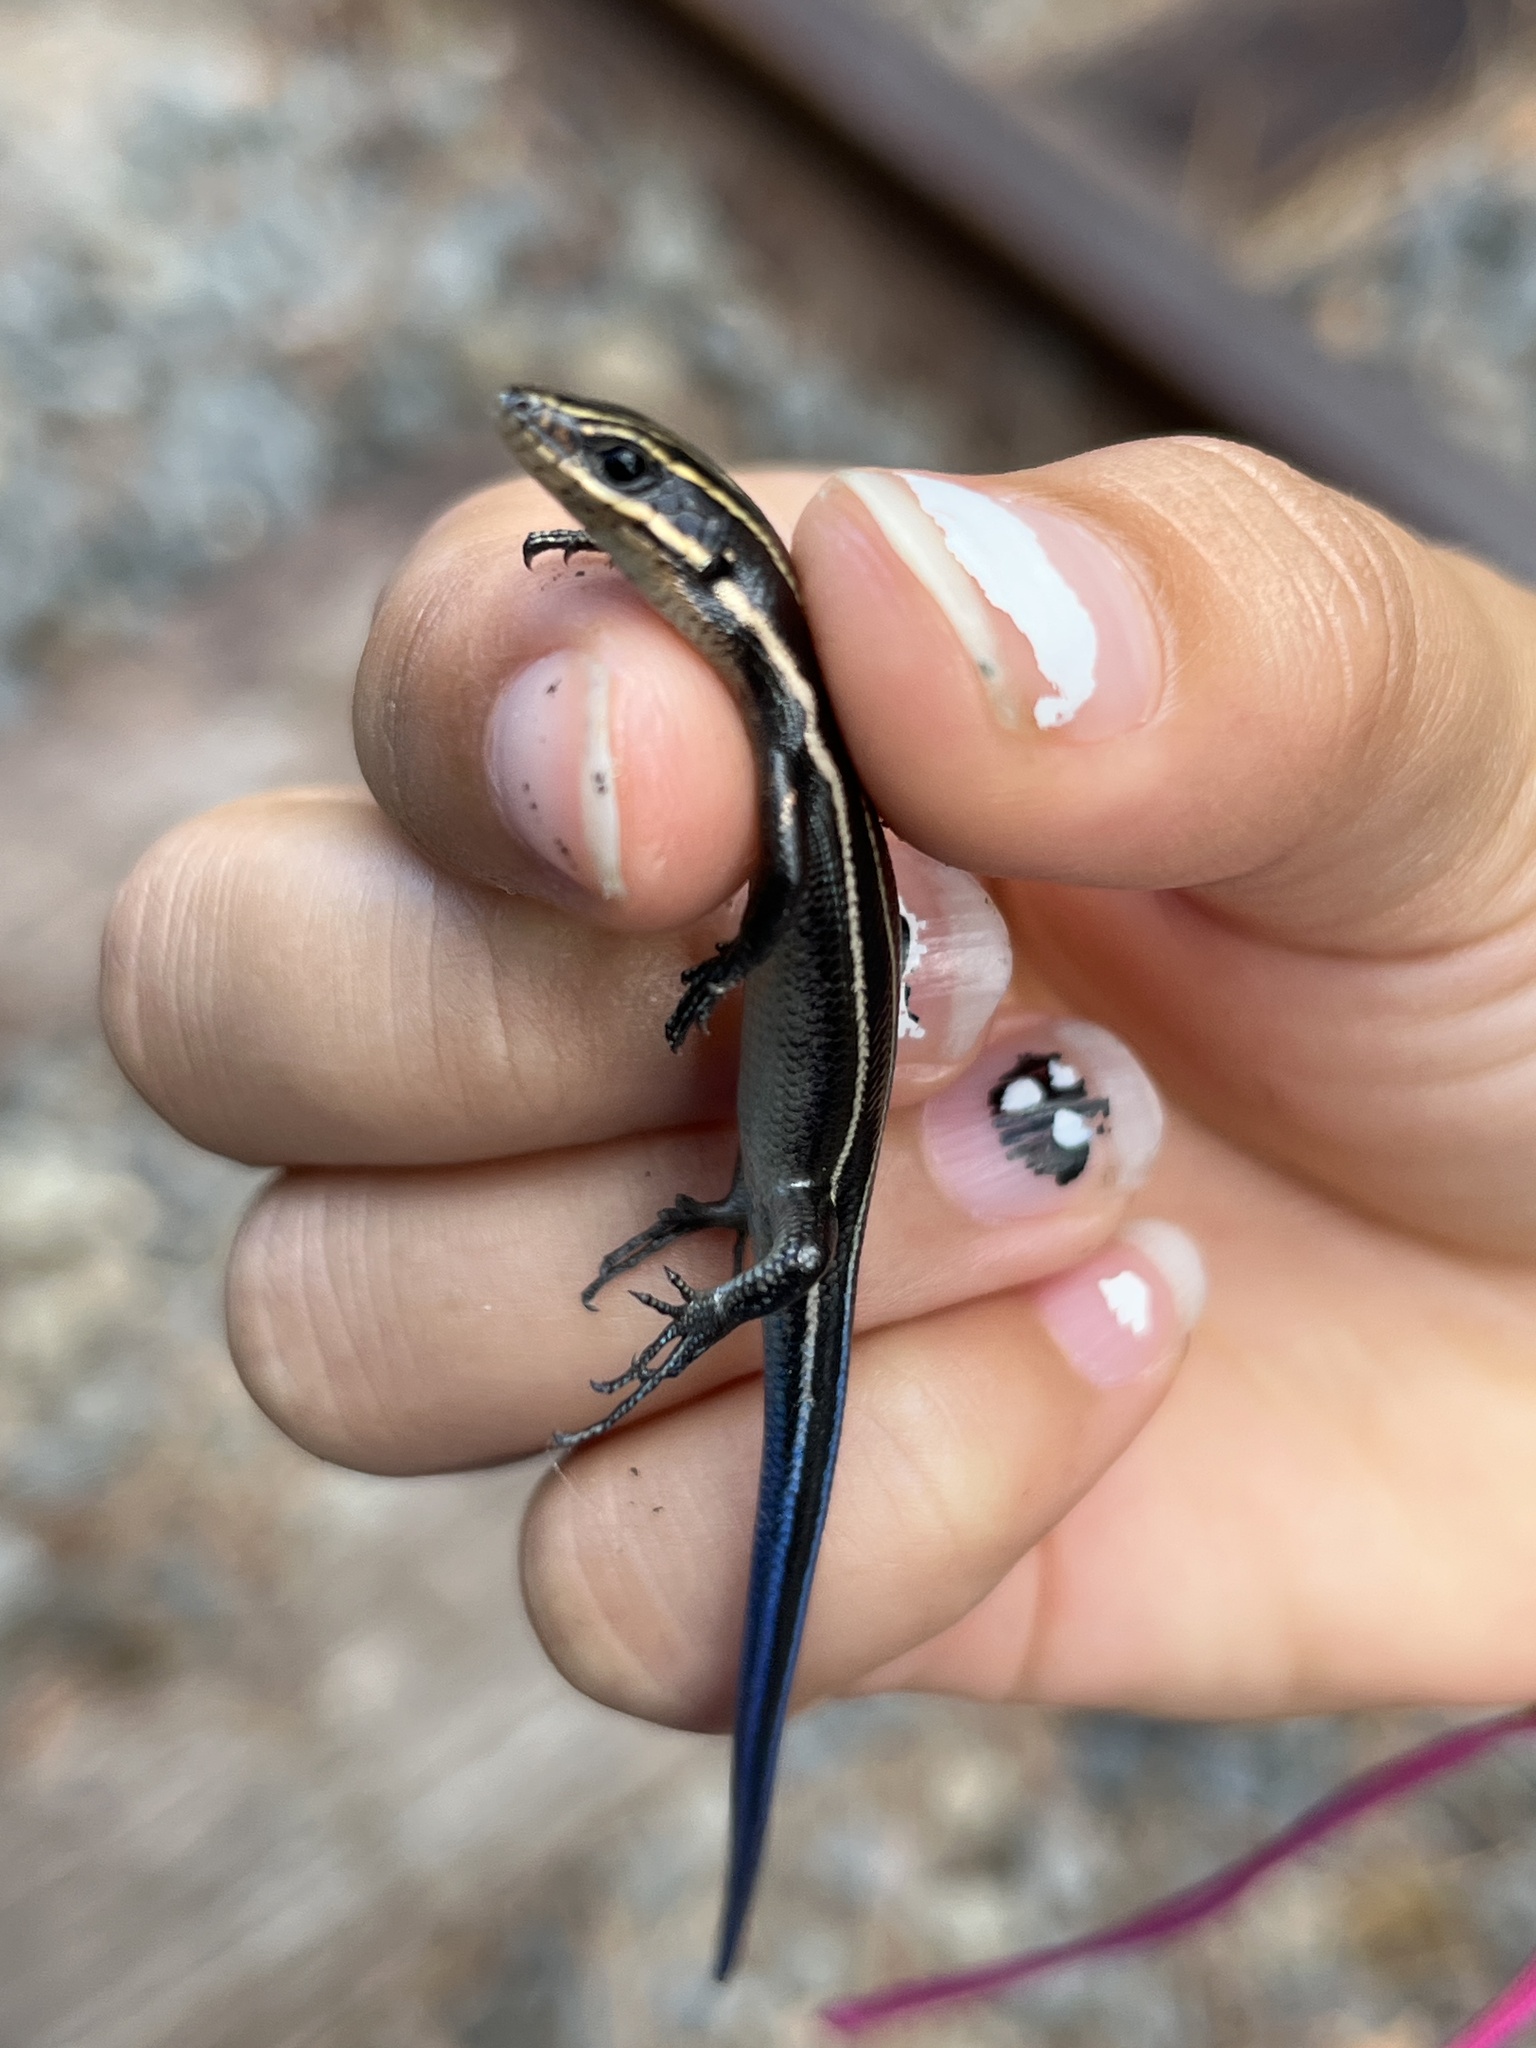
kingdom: Animalia
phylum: Chordata
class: Squamata
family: Scincidae
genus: Plestiodon
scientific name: Plestiodon fasciatus
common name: Five-lined skink
